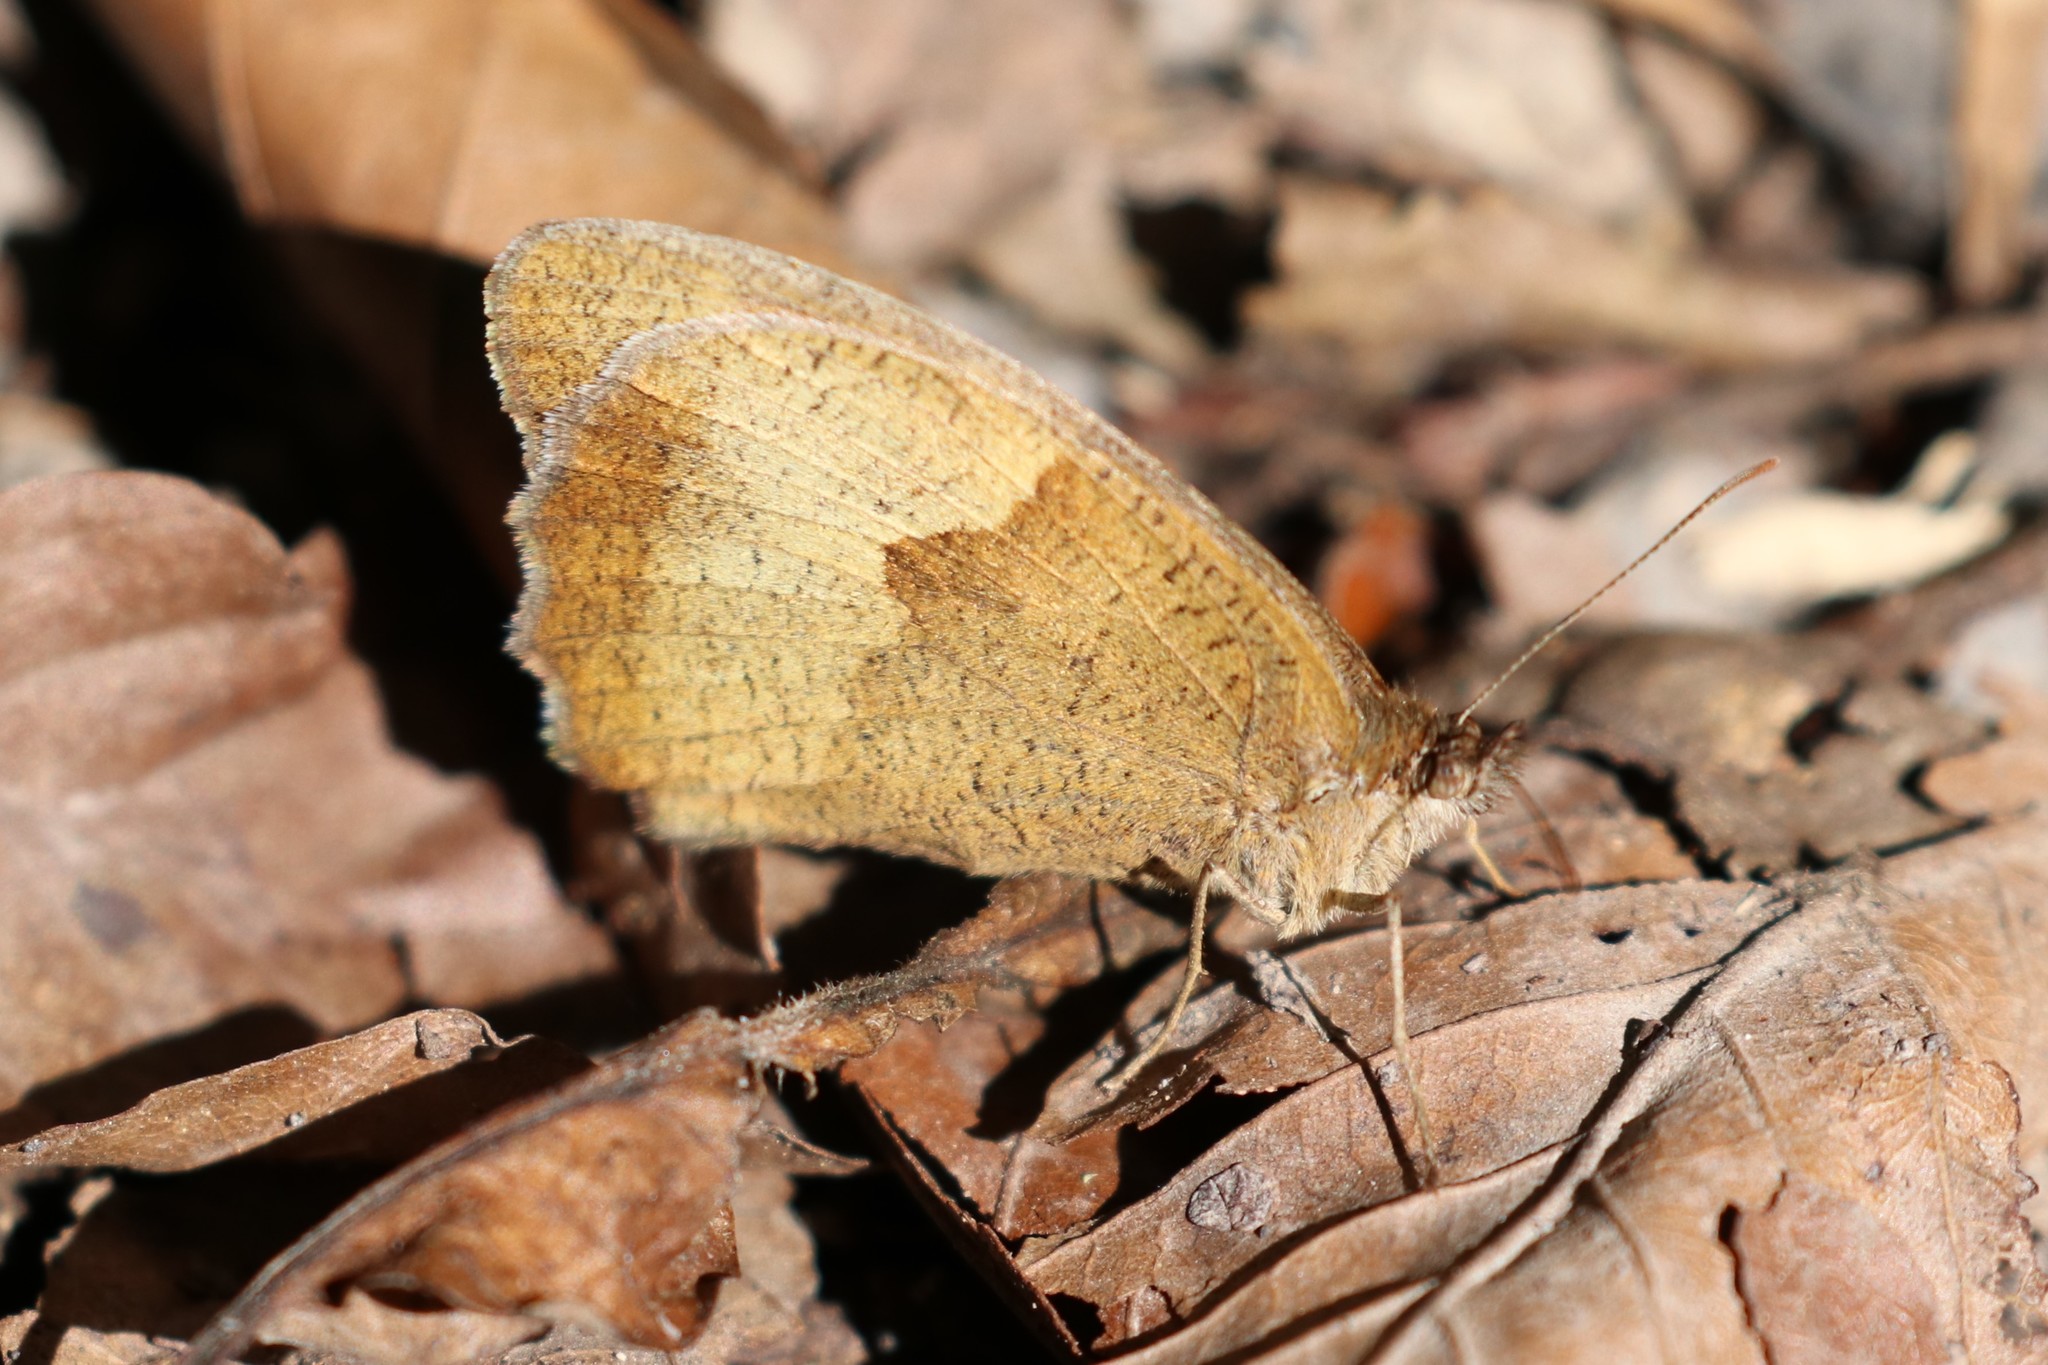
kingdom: Animalia
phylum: Arthropoda
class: Insecta
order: Lepidoptera
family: Nymphalidae
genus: Maniola
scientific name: Maniola jurtina
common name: Meadow brown
